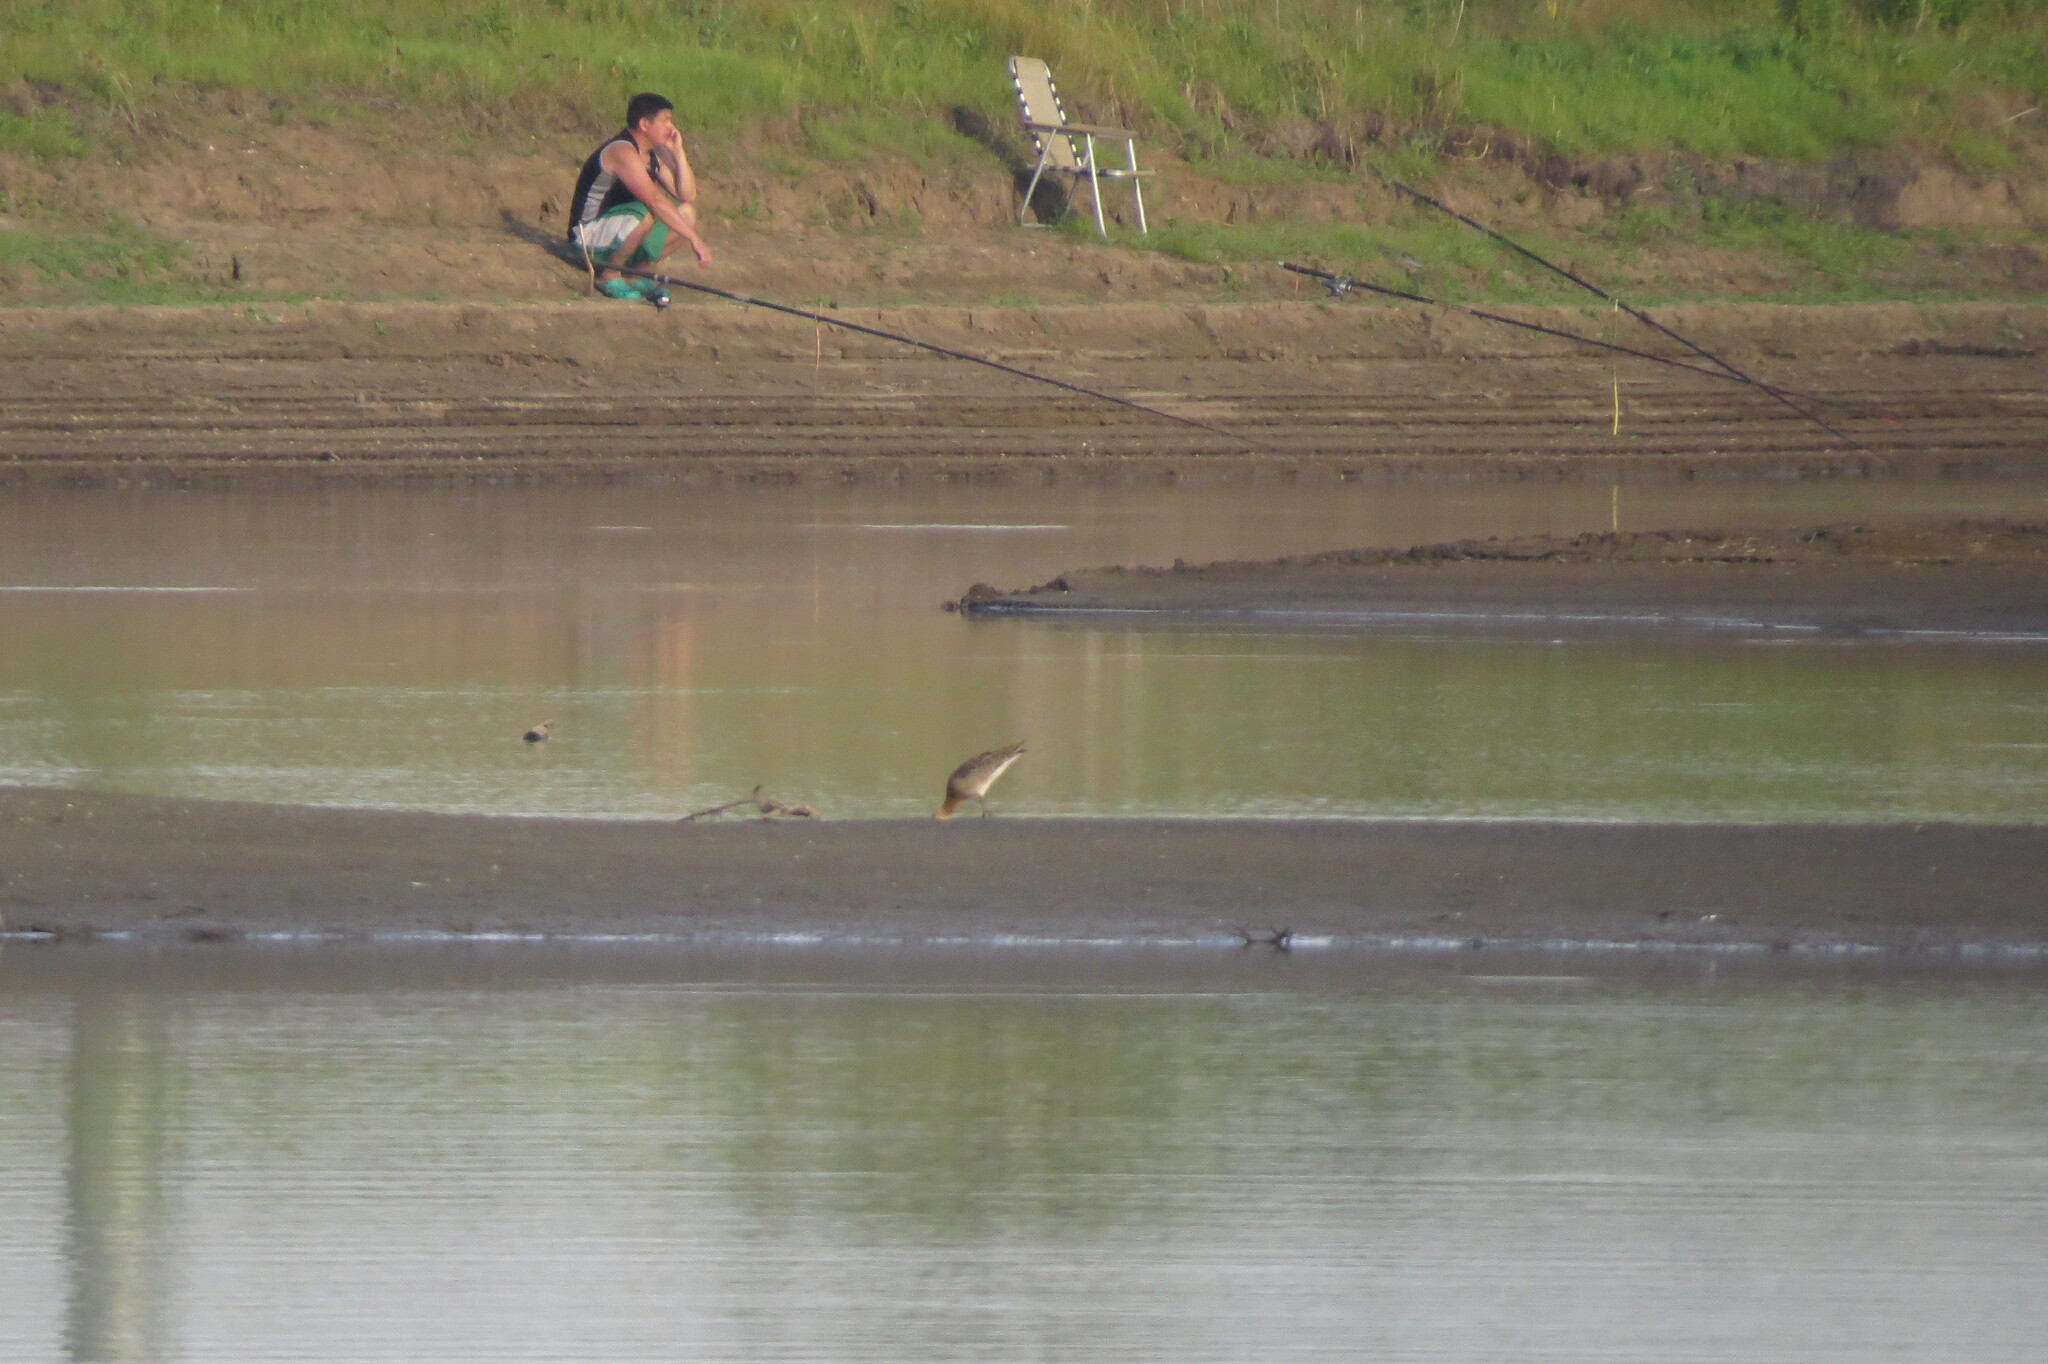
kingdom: Animalia
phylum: Chordata
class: Aves
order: Charadriiformes
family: Scolopacidae
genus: Limosa
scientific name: Limosa limosa
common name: Black-tailed godwit
